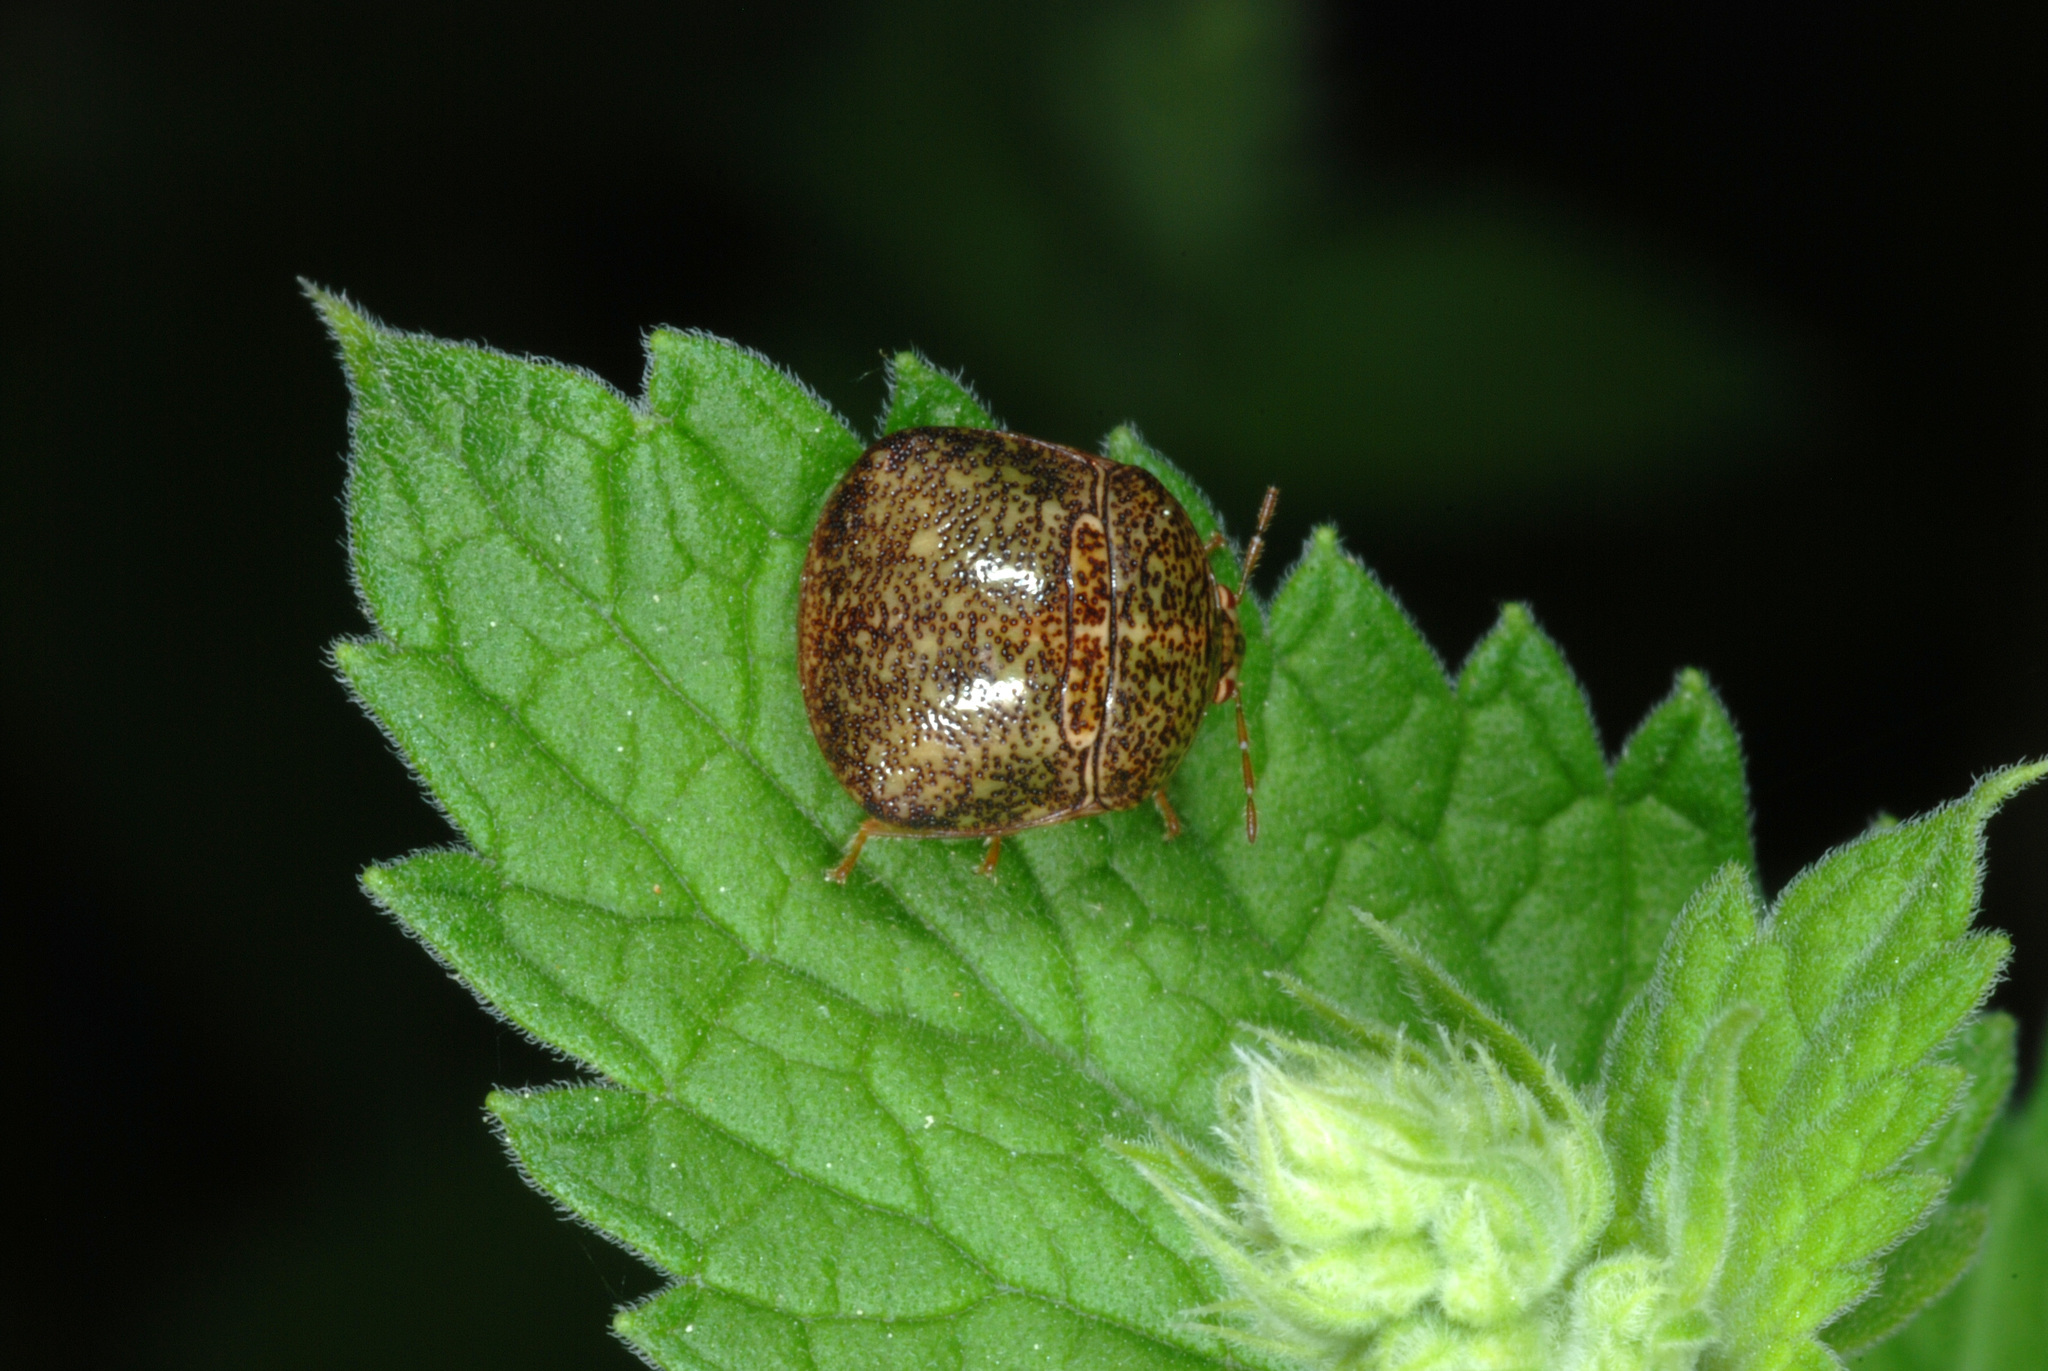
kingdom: Animalia
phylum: Arthropoda
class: Insecta
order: Hemiptera
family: Plataspidae
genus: Megacopta
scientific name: Megacopta cribraria
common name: Bean plataspid
